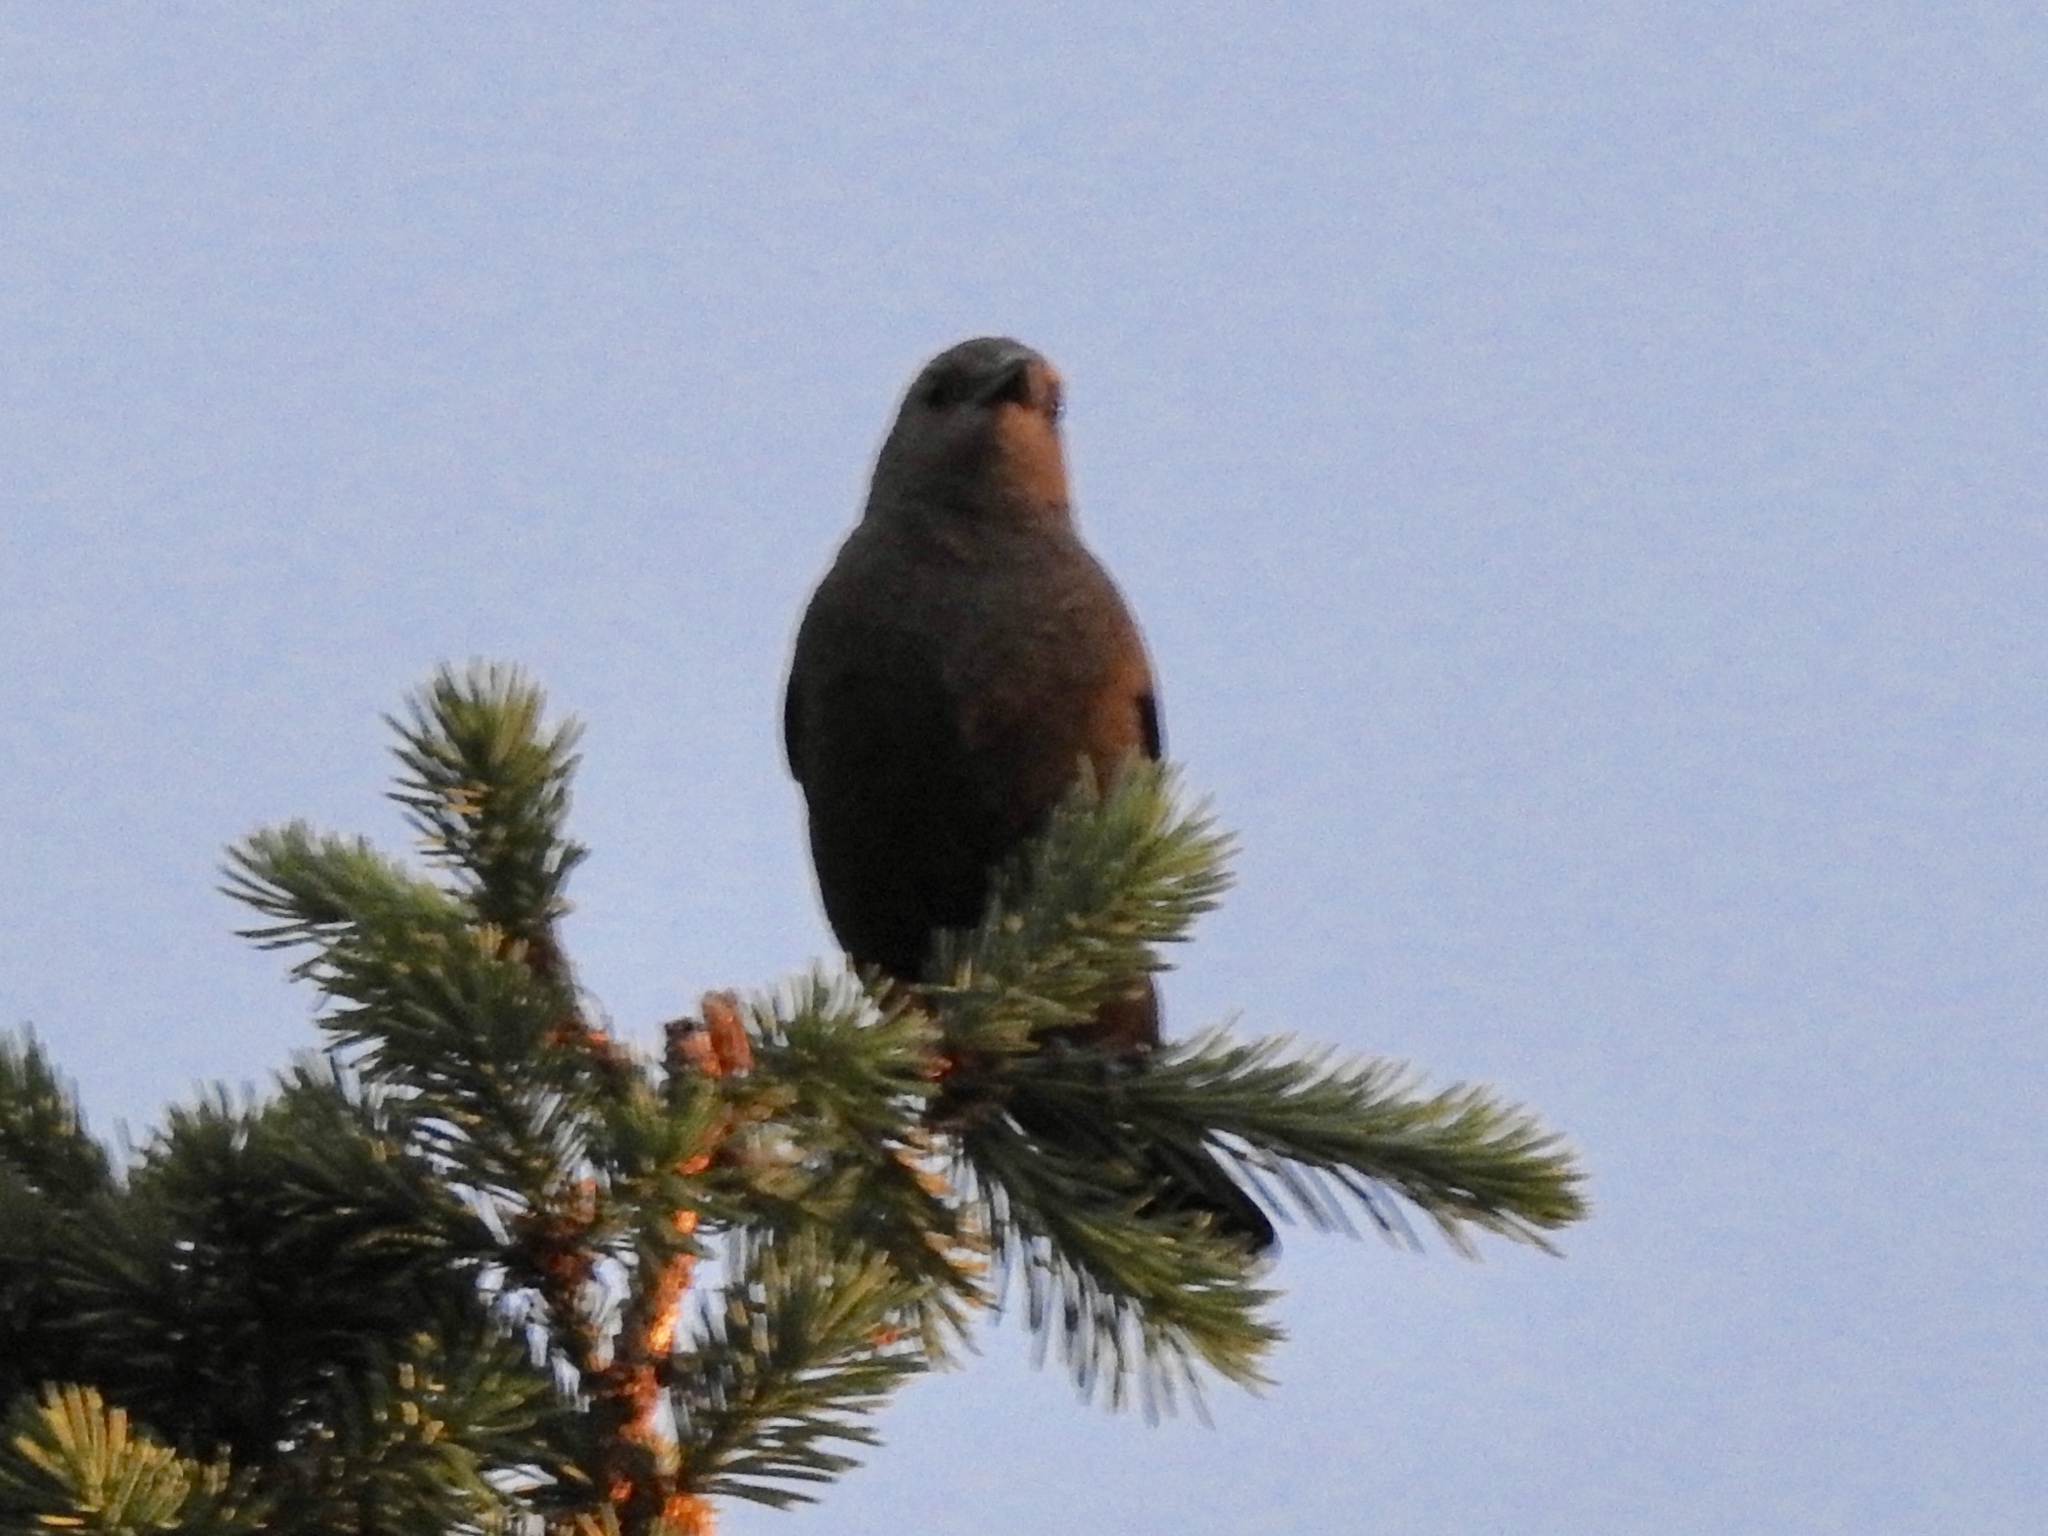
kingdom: Animalia
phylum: Chordata
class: Aves
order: Passeriformes
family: Icteridae
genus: Euphagus
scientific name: Euphagus cyanocephalus
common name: Brewer's blackbird
